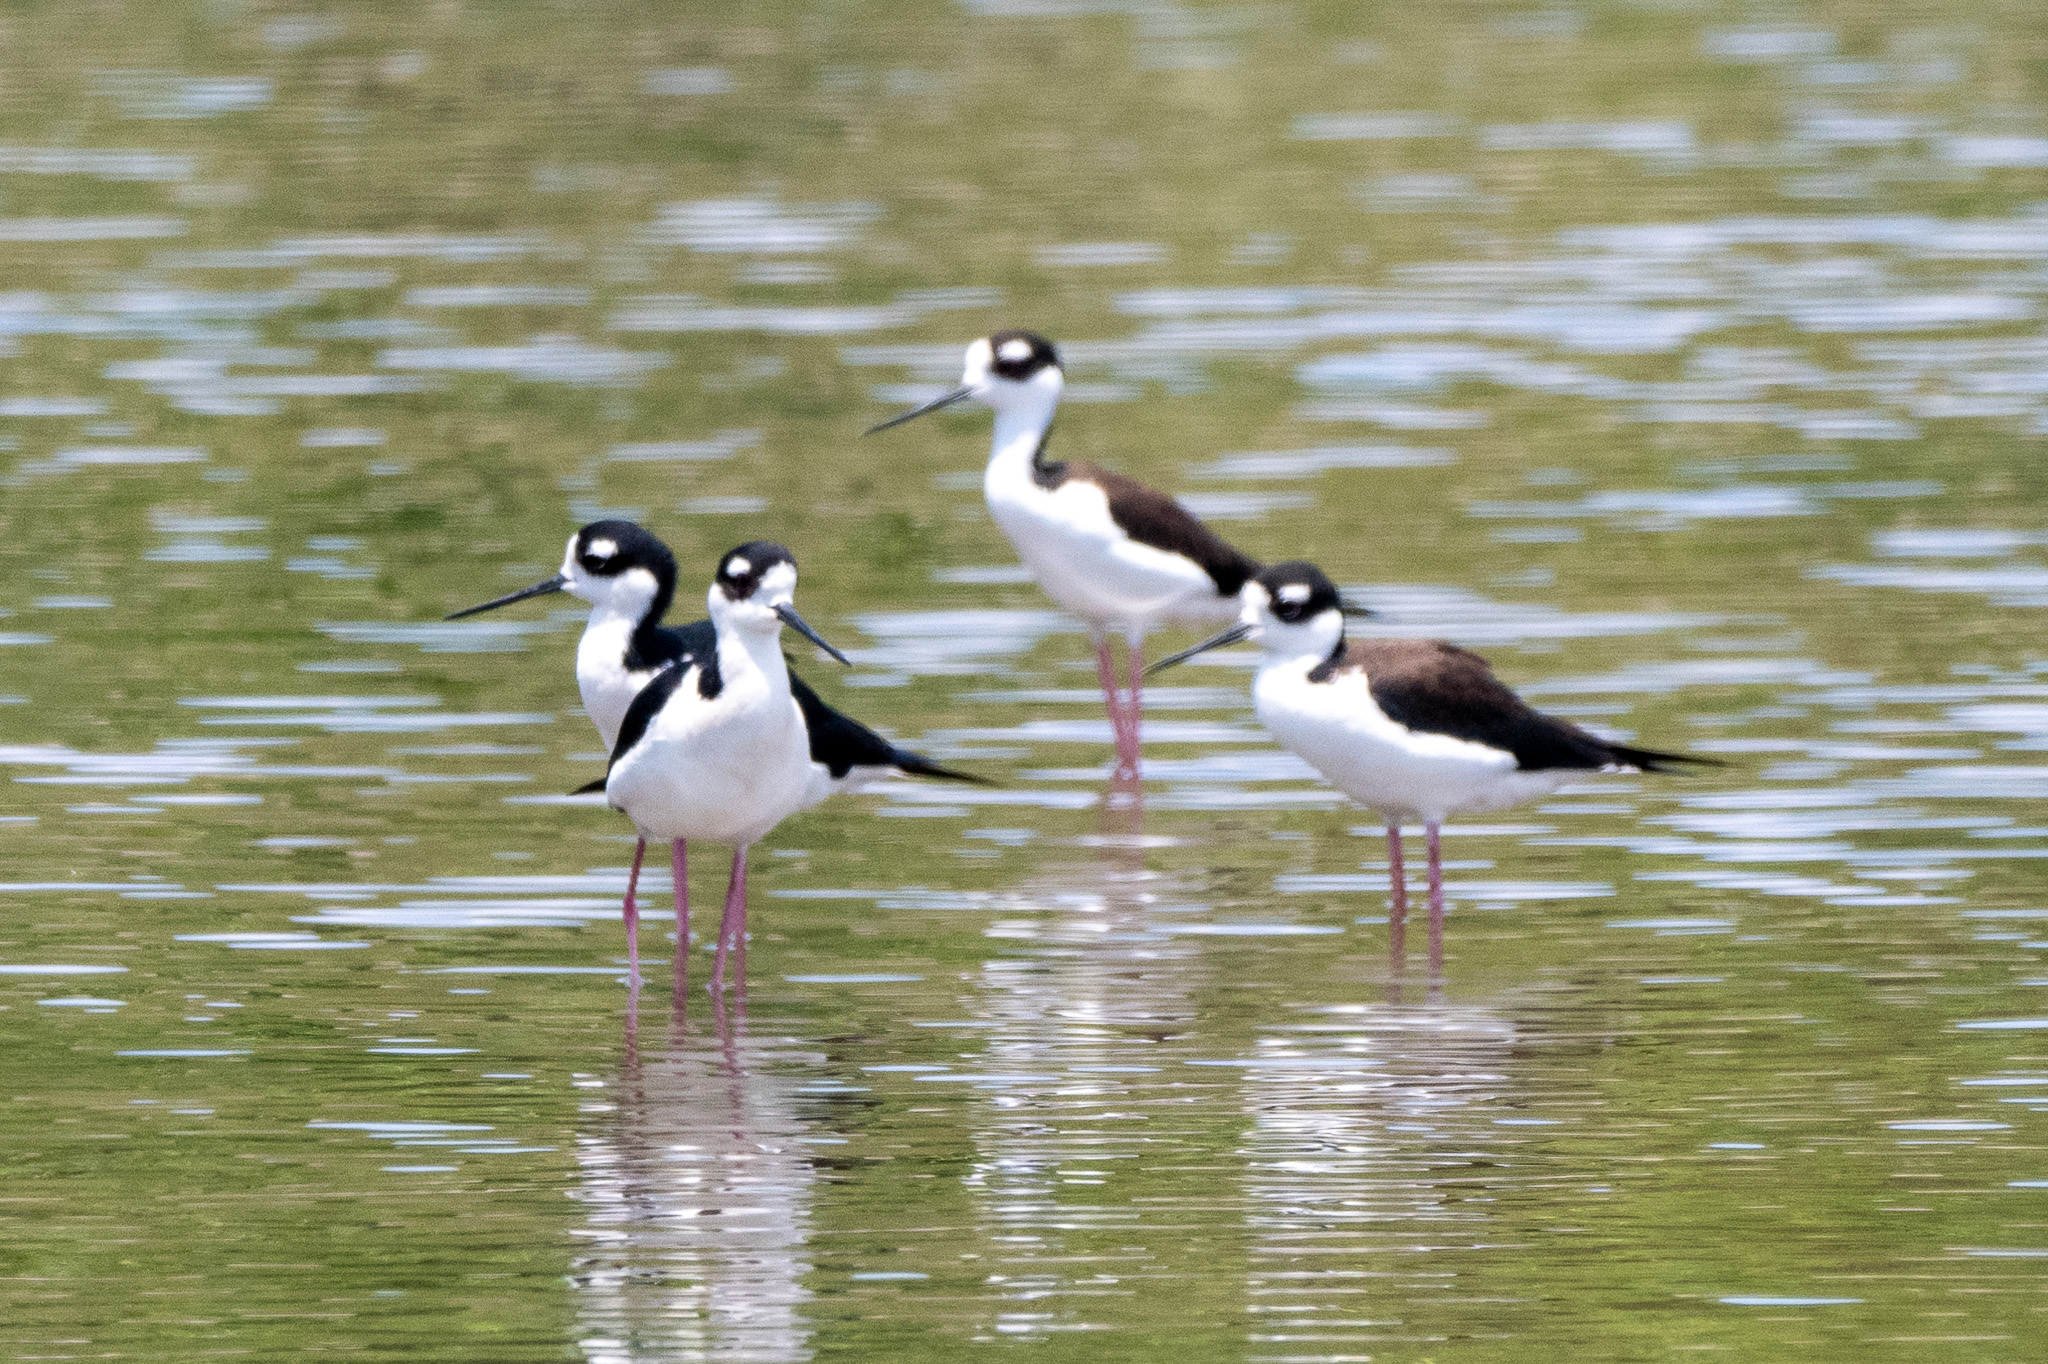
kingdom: Animalia
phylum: Chordata
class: Aves
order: Charadriiformes
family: Recurvirostridae
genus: Himantopus
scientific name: Himantopus mexicanus
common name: Black-necked stilt
